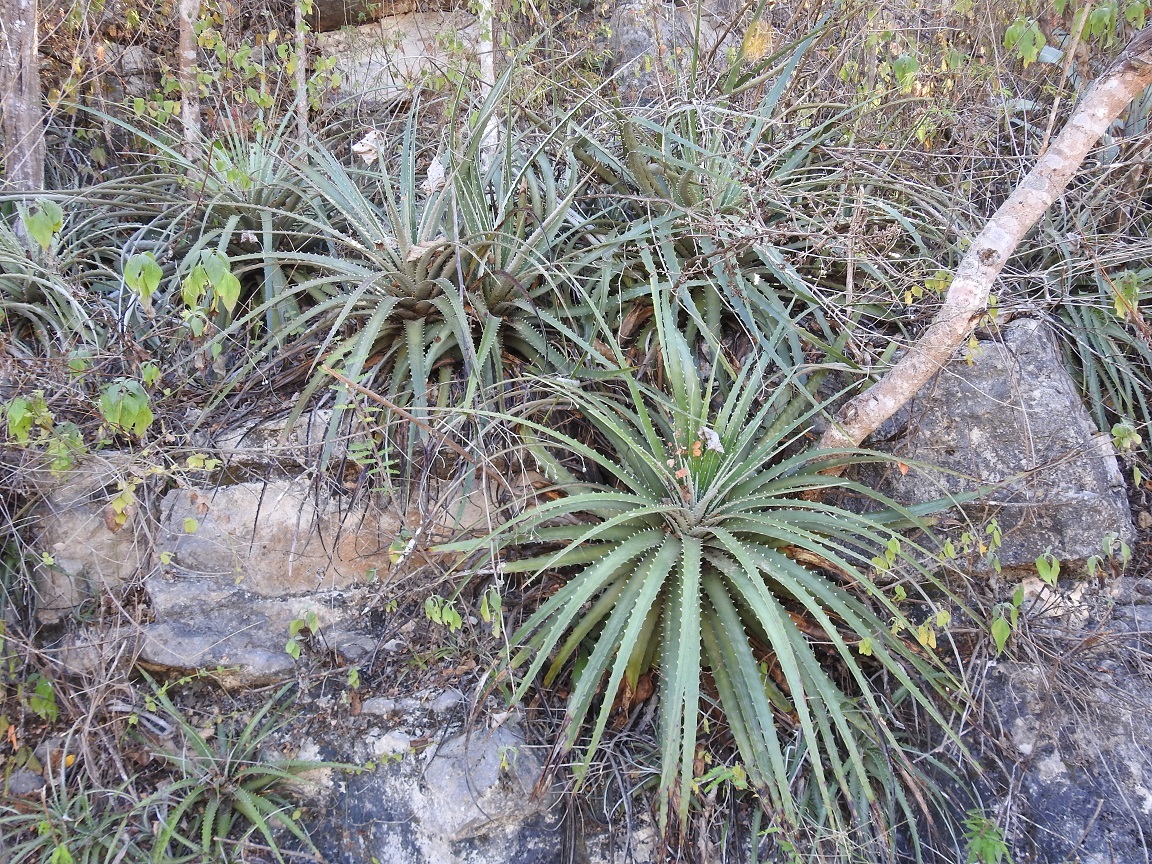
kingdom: Plantae
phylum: Tracheophyta
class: Liliopsida
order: Poales
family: Bromeliaceae
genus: Hechtia
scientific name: Hechtia glomerata
